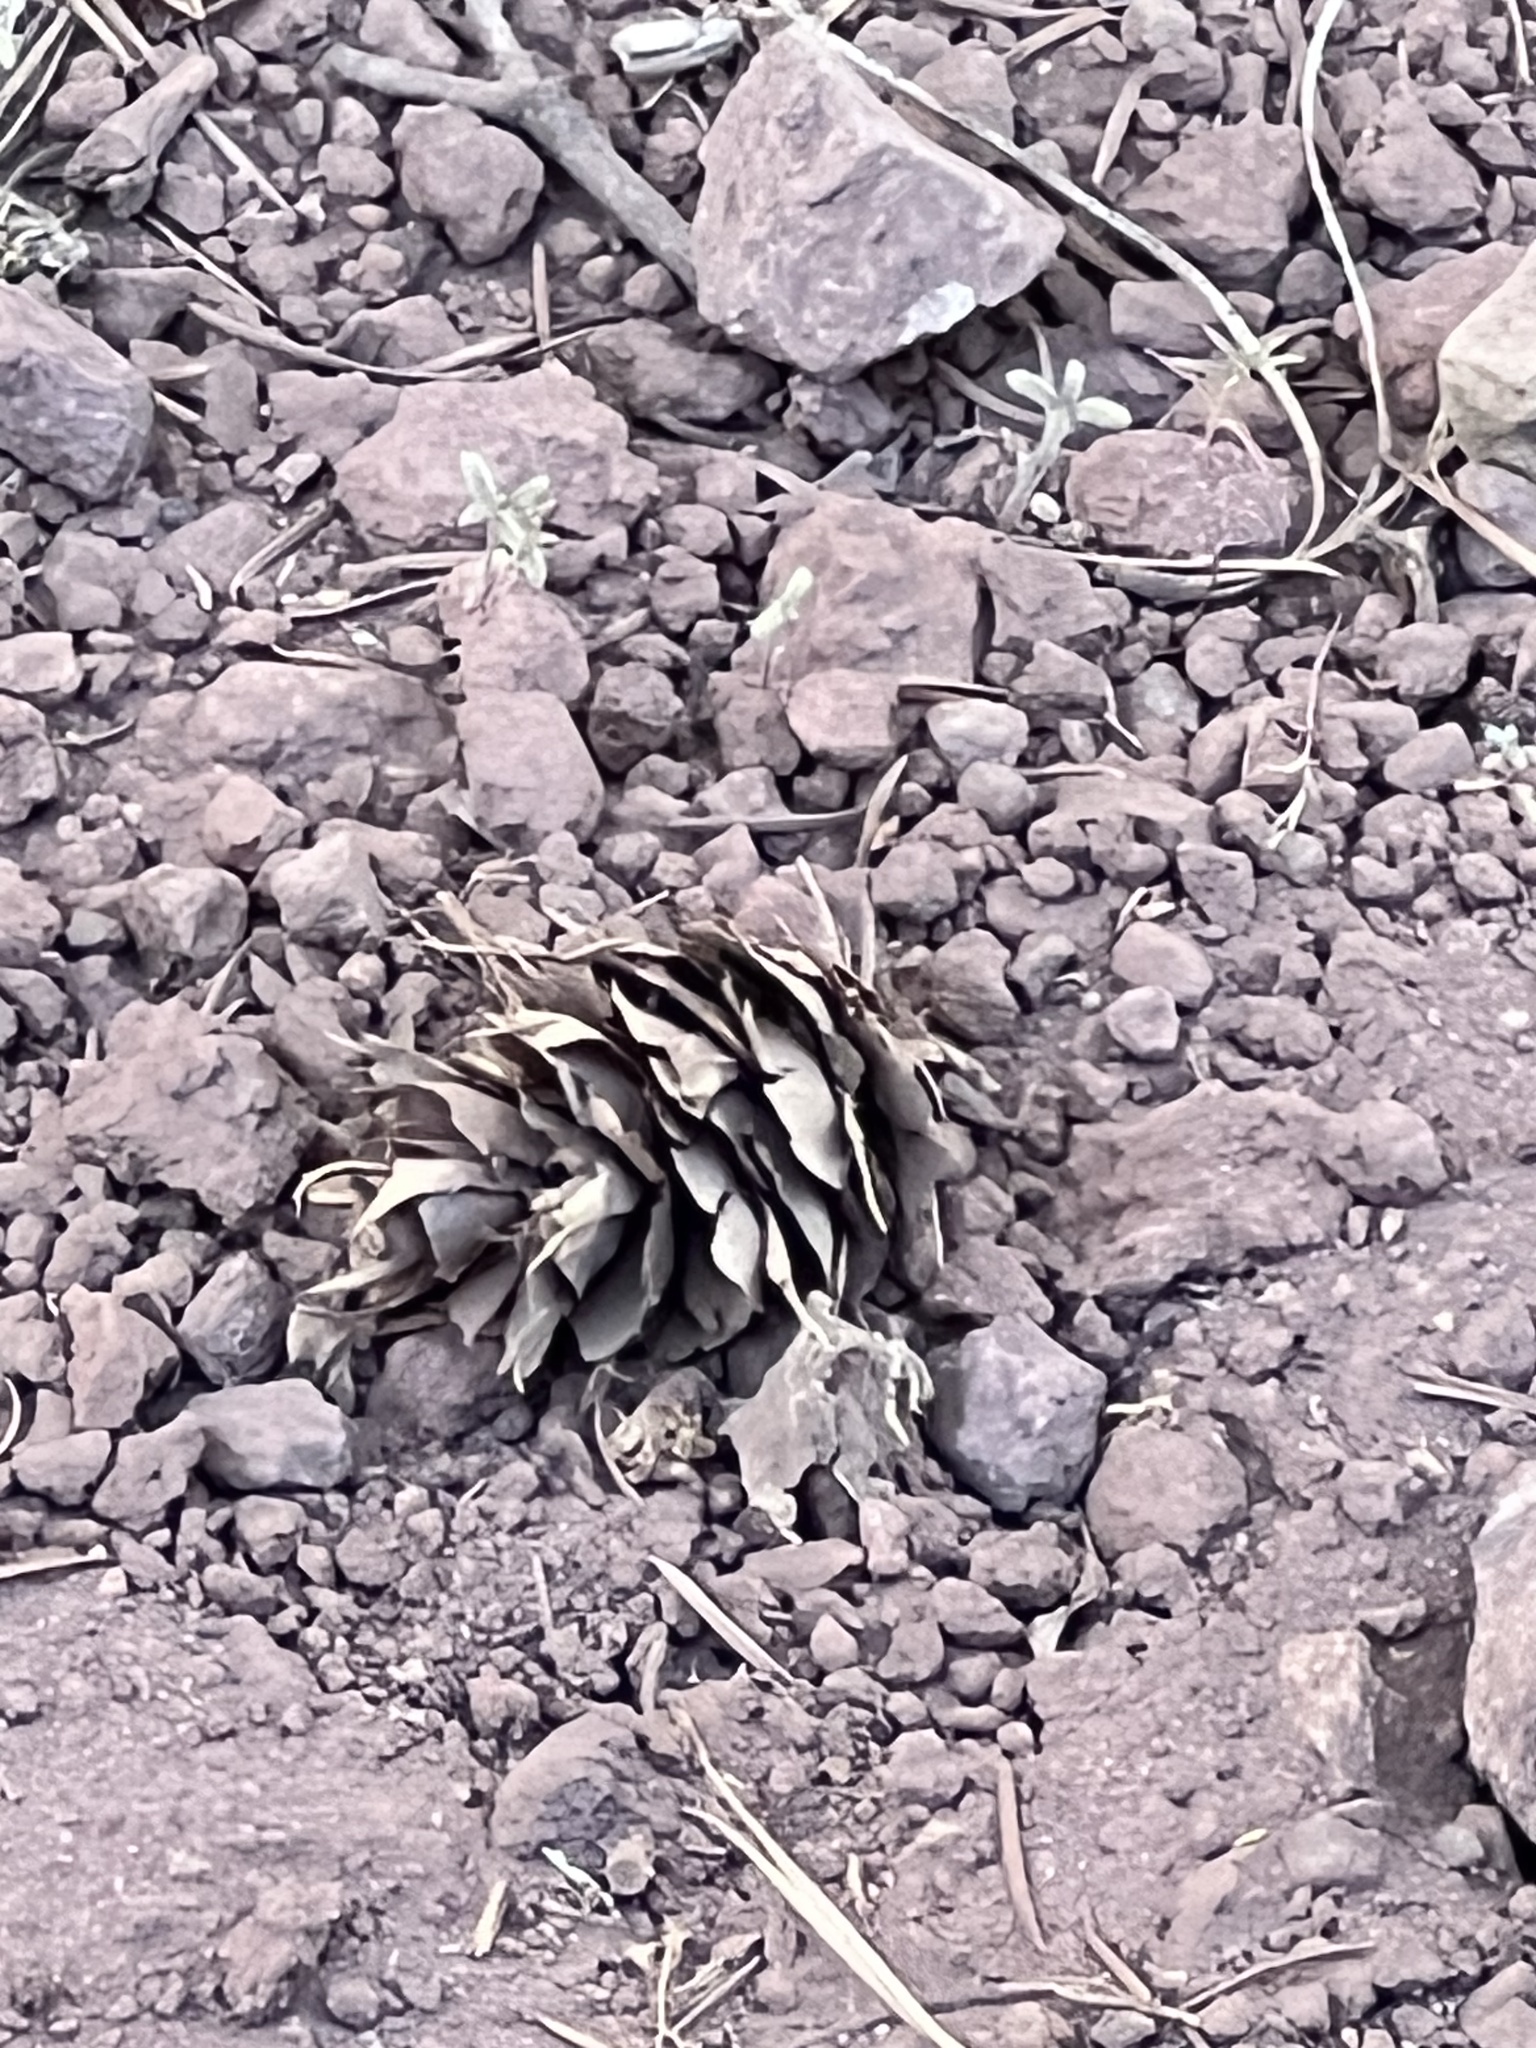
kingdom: Plantae
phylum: Tracheophyta
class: Pinopsida
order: Pinales
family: Pinaceae
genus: Pseudotsuga
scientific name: Pseudotsuga menziesii
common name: Douglas fir
